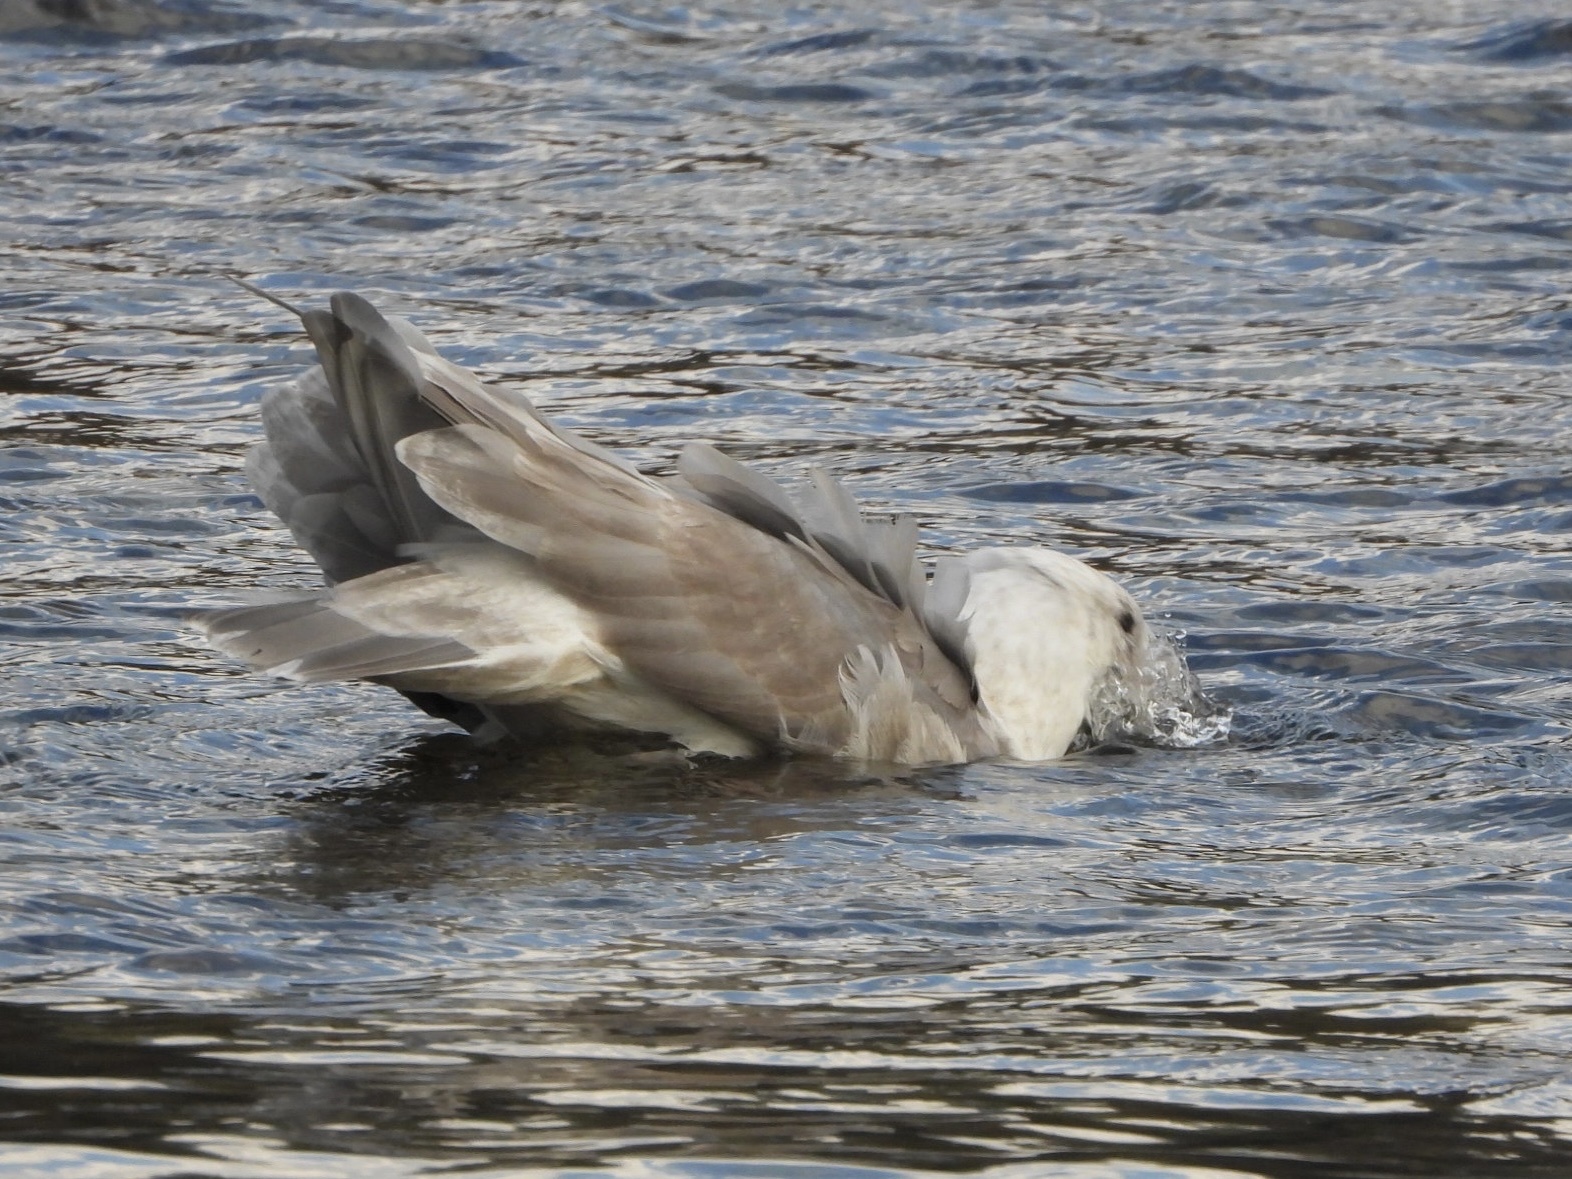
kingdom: Animalia
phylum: Chordata
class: Aves
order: Charadriiformes
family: Laridae
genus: Larus
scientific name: Larus glaucescens
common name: Glaucous-winged gull
